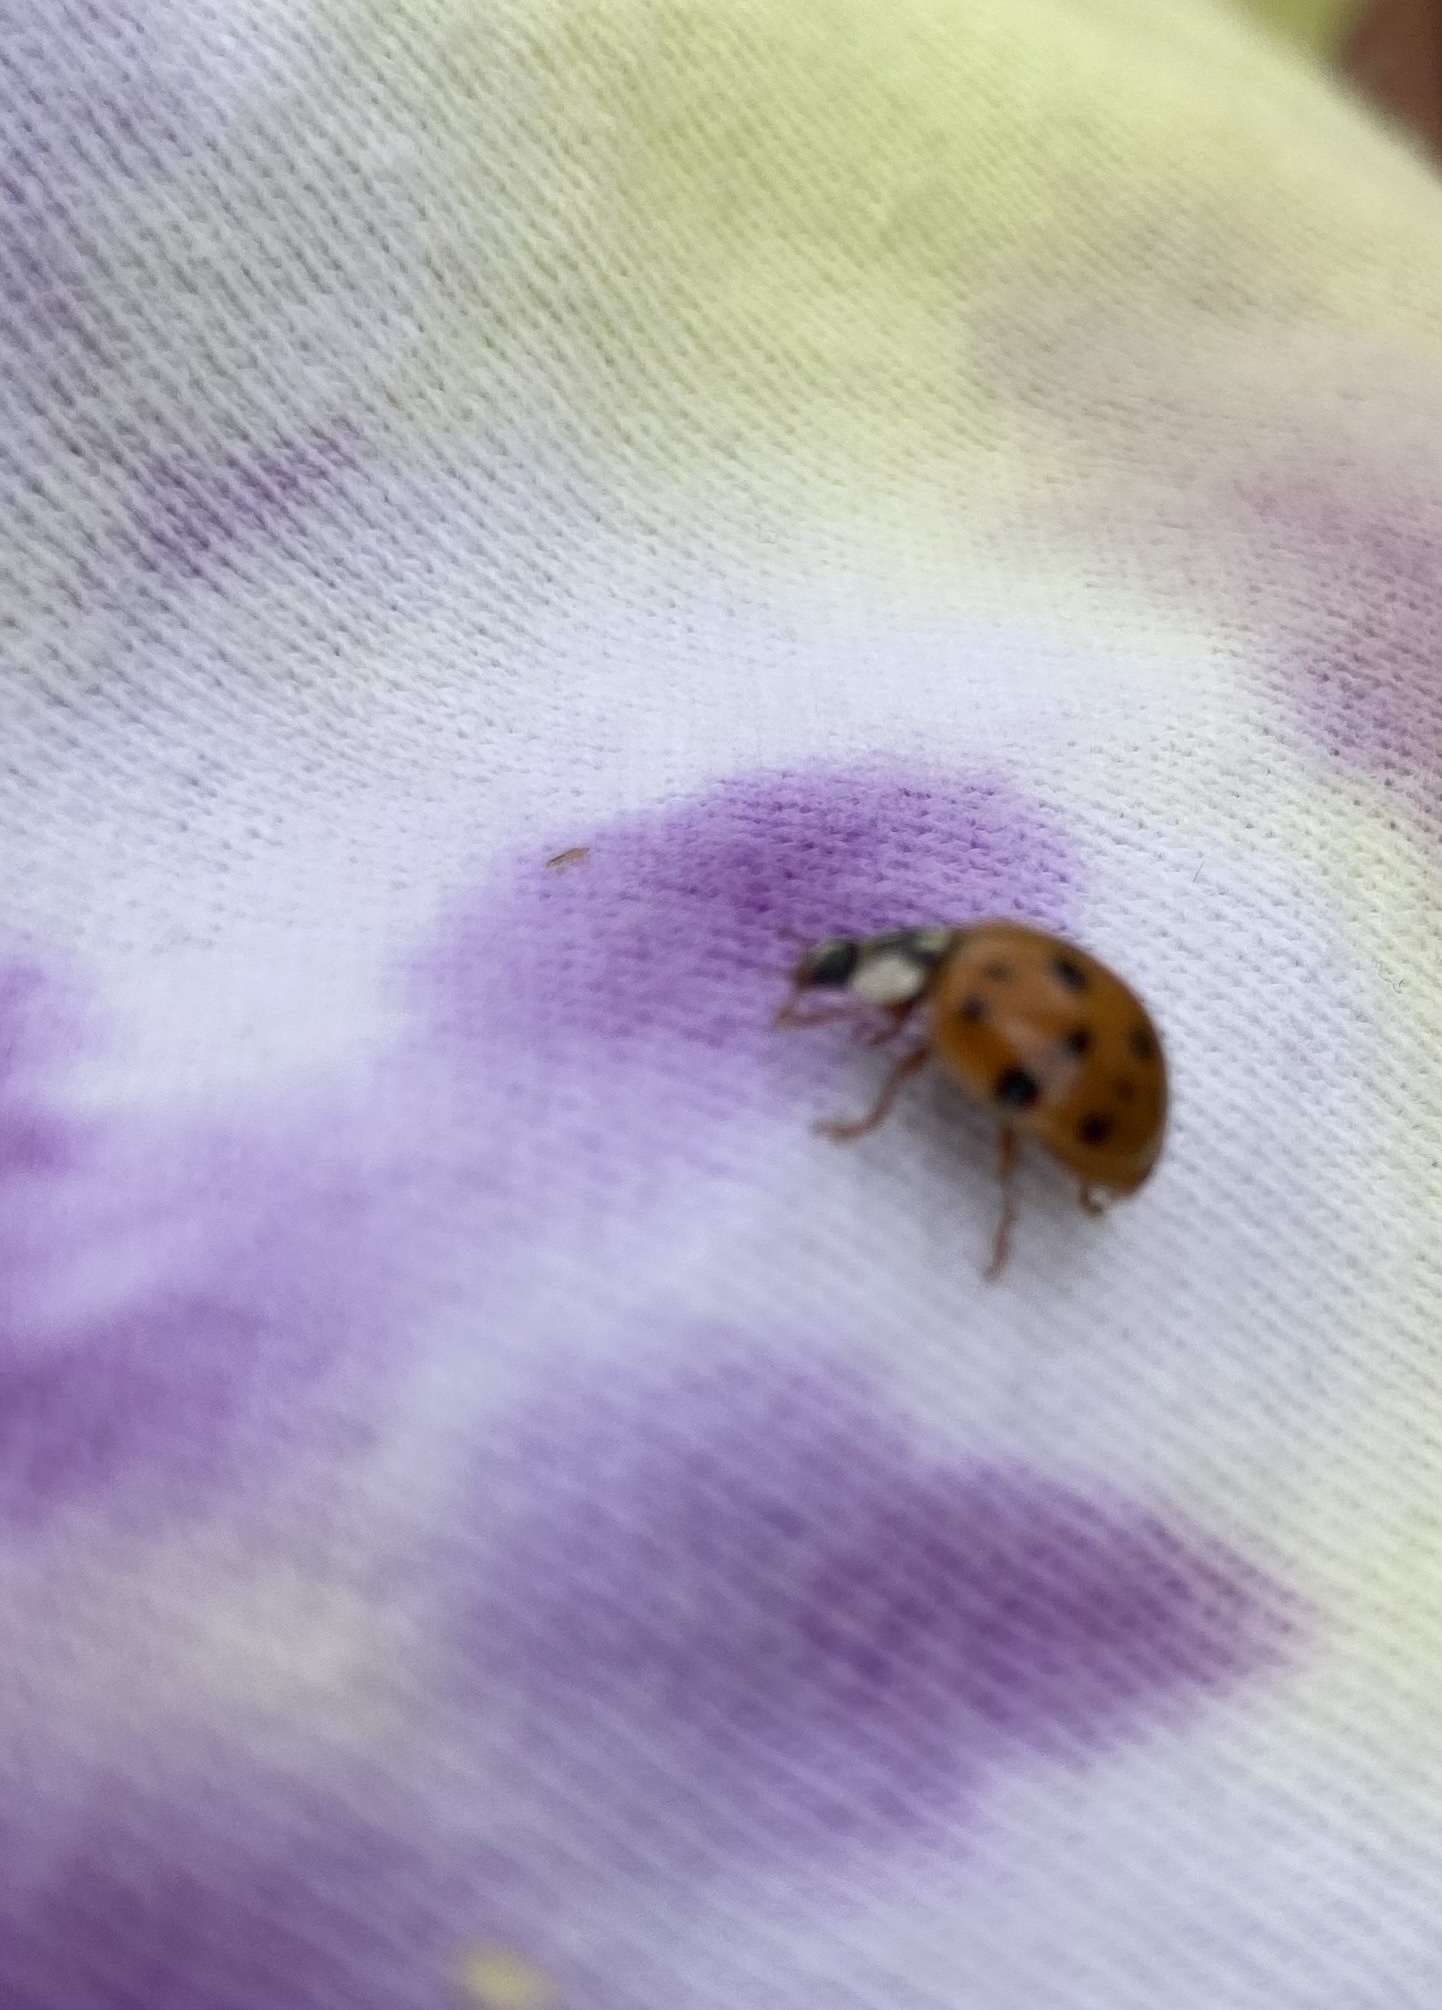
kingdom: Animalia
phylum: Arthropoda
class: Insecta
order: Coleoptera
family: Coccinellidae
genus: Harmonia
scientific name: Harmonia axyridis
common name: Harlequin ladybird
